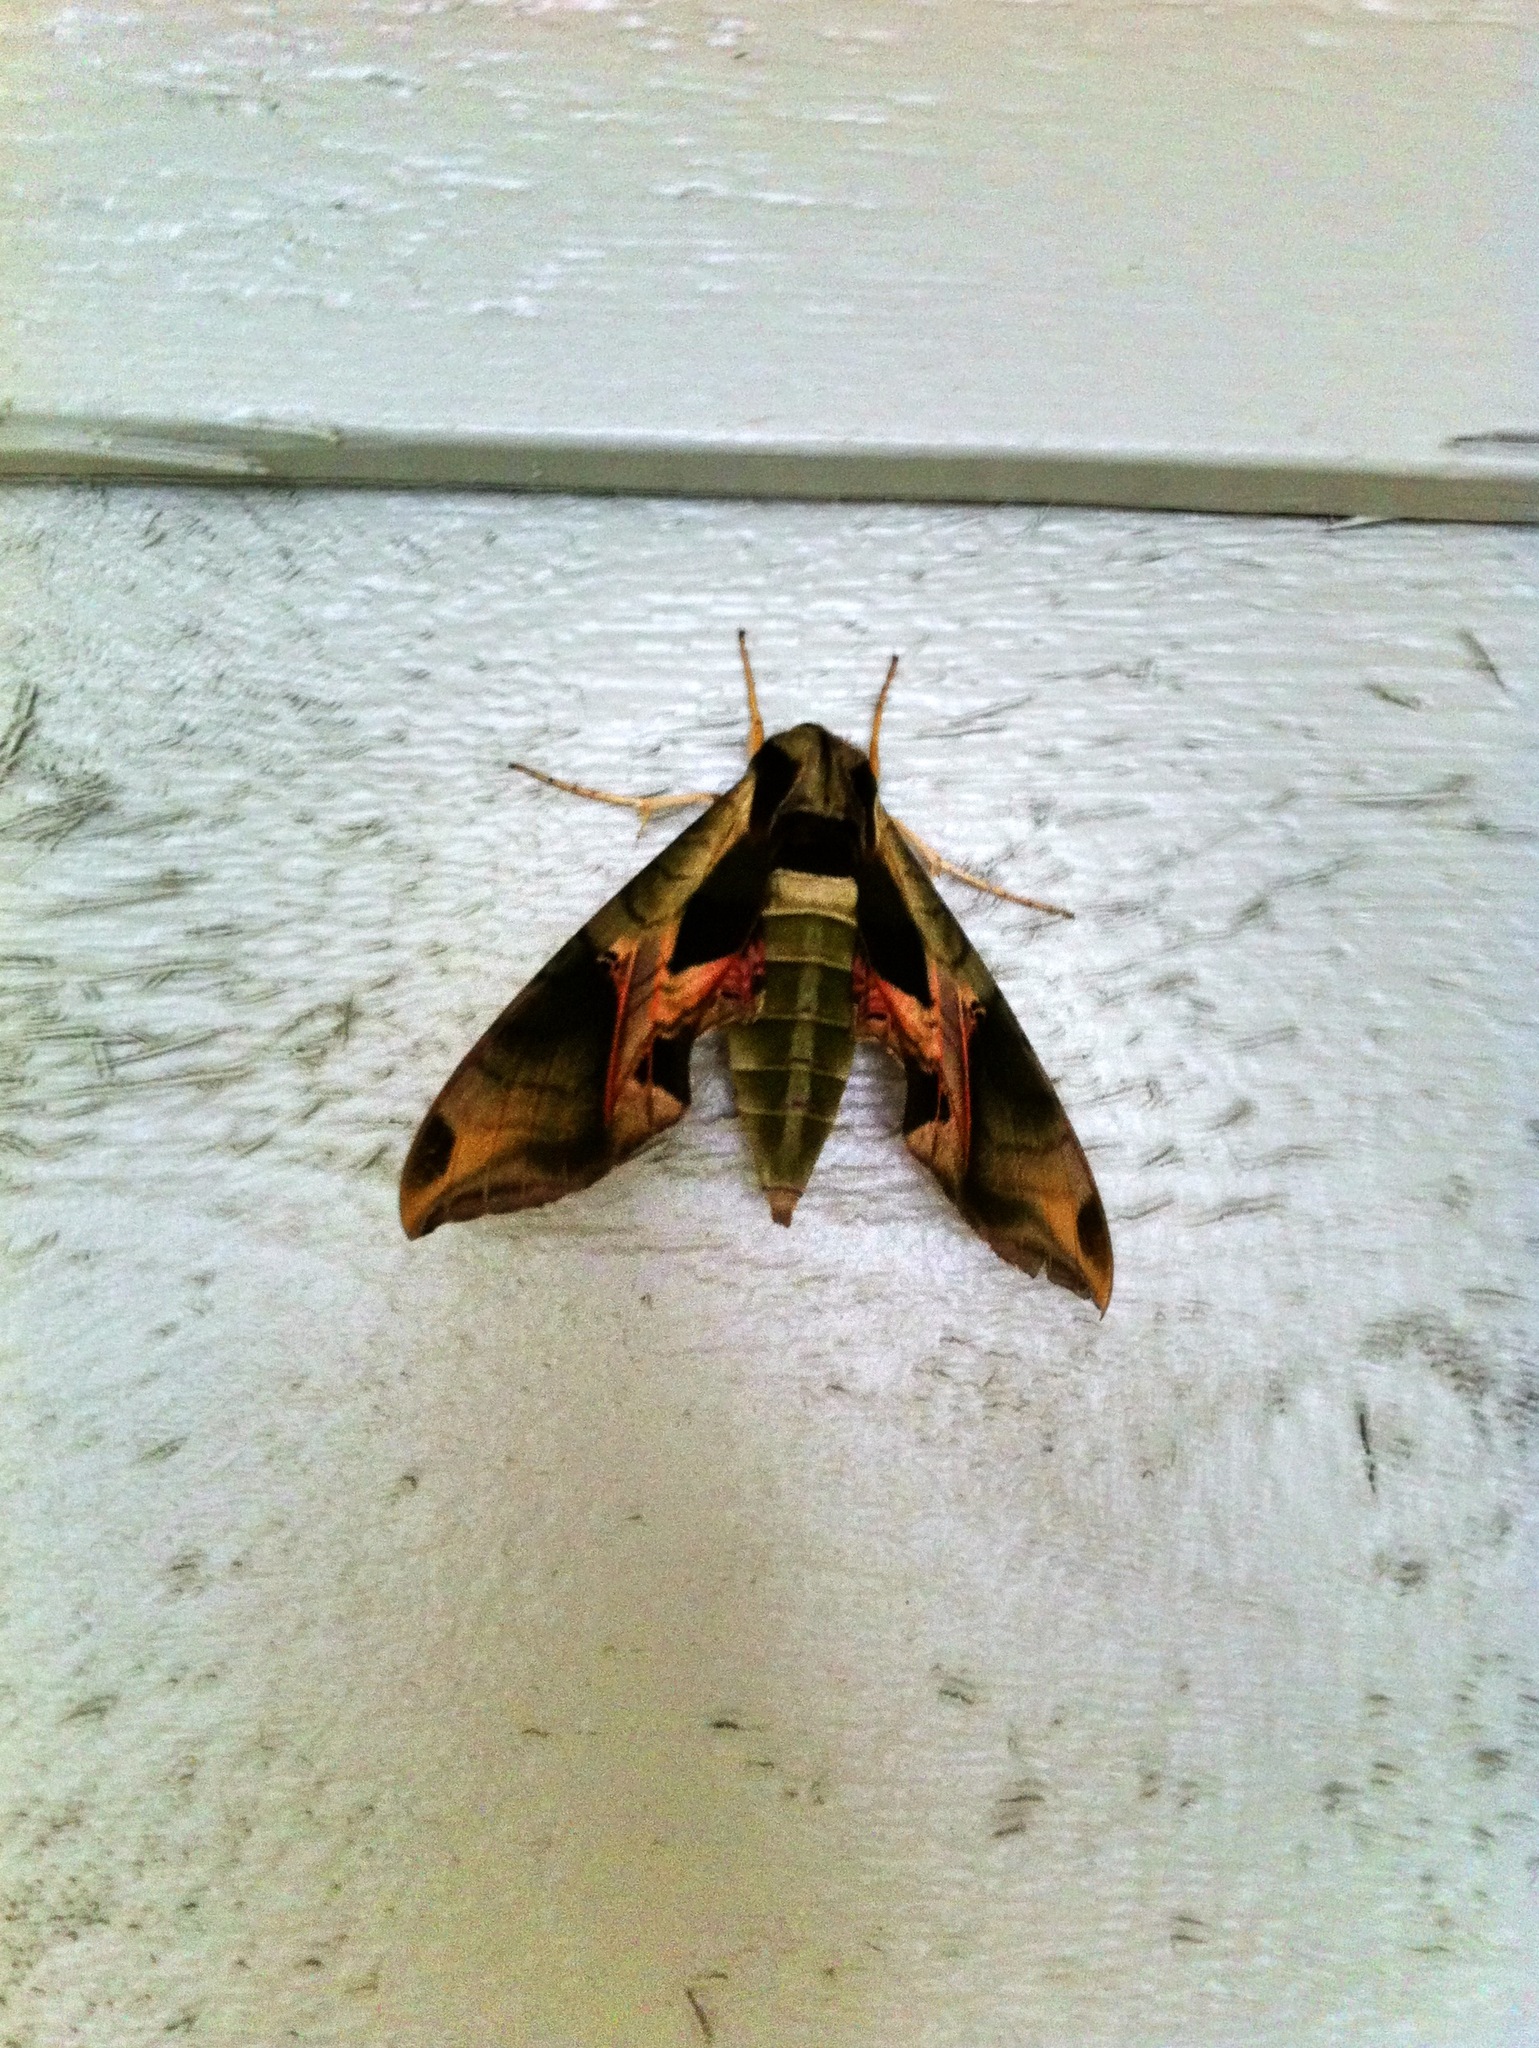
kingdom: Animalia
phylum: Arthropoda
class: Insecta
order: Lepidoptera
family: Sphingidae
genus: Eumorpha
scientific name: Eumorpha pandorus
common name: Pandora sphinx
